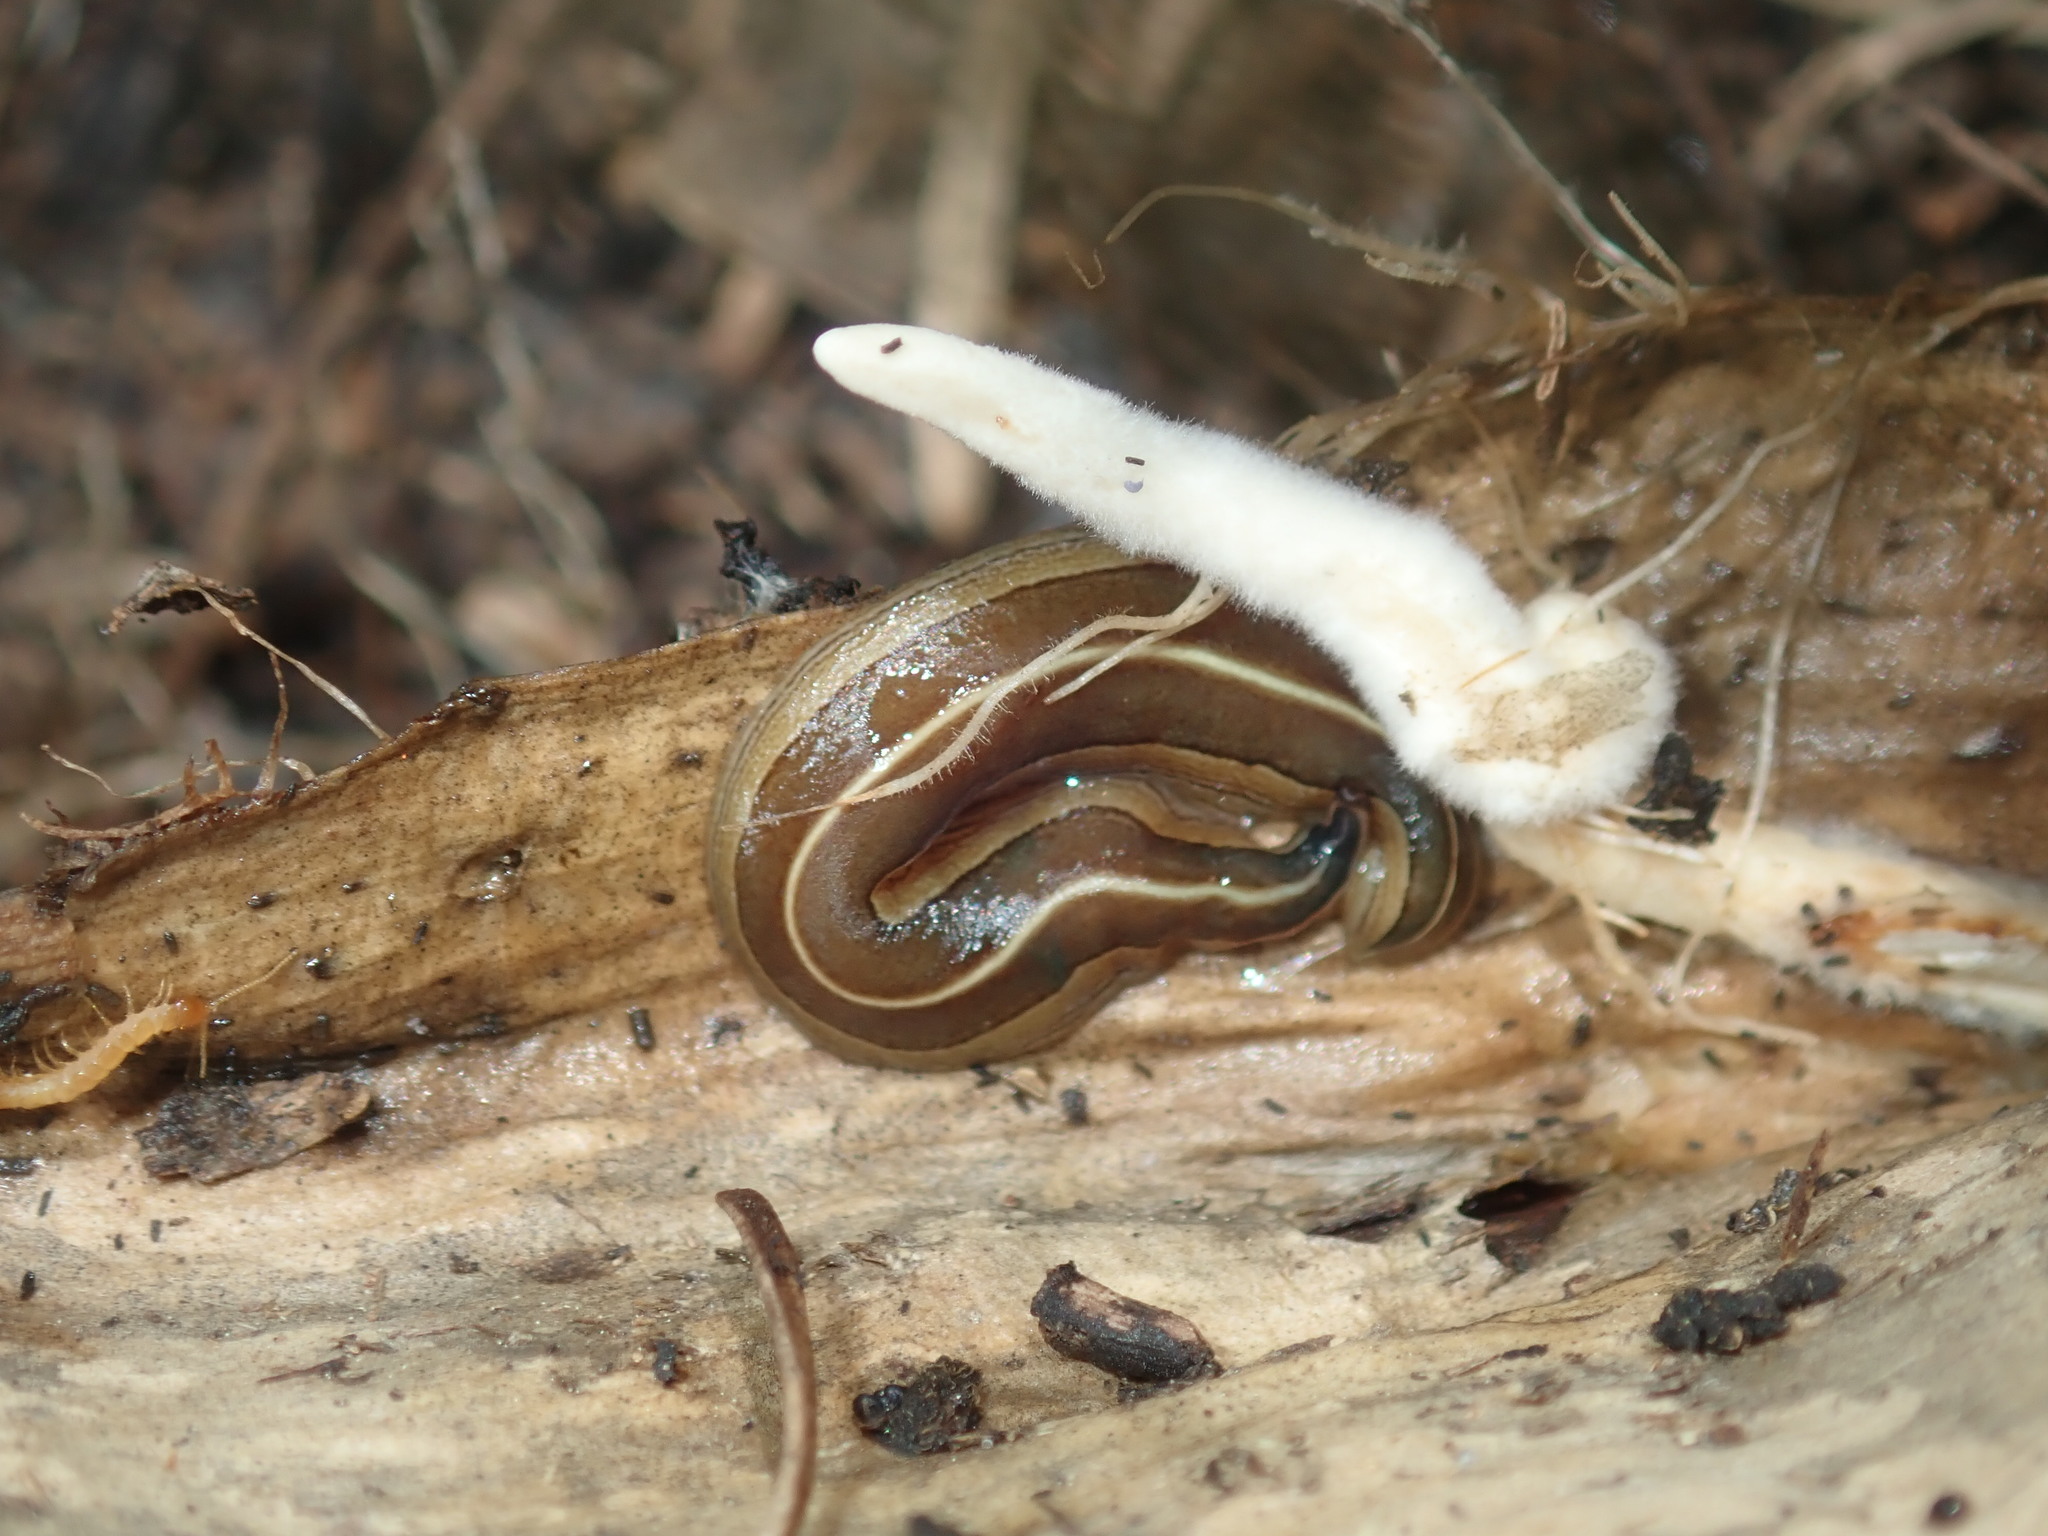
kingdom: Animalia
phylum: Platyhelminthes
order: Tricladida
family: Geoplanidae
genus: Australopacifica
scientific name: Australopacifica scaphoidea
